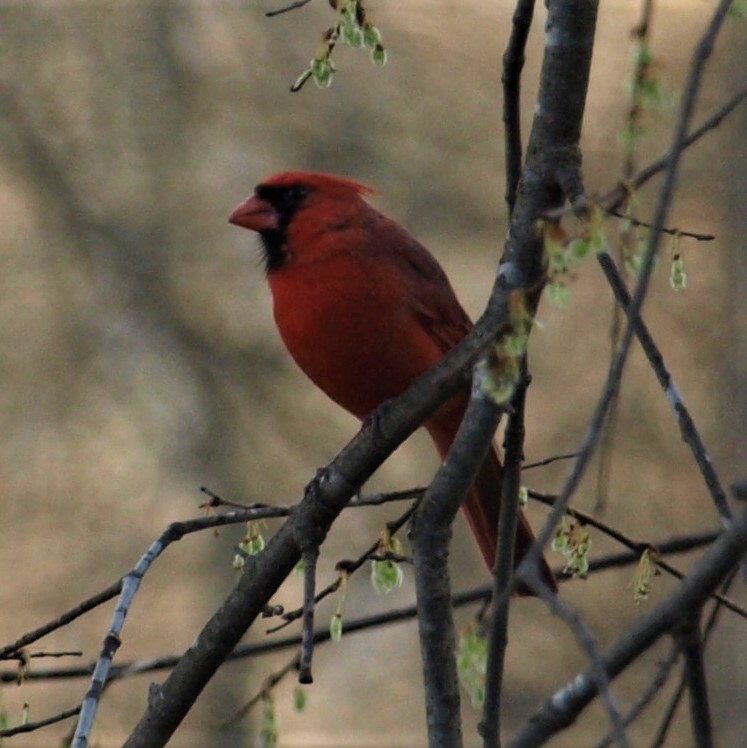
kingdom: Animalia
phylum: Chordata
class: Aves
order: Passeriformes
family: Cardinalidae
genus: Cardinalis
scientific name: Cardinalis cardinalis
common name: Northern cardinal
